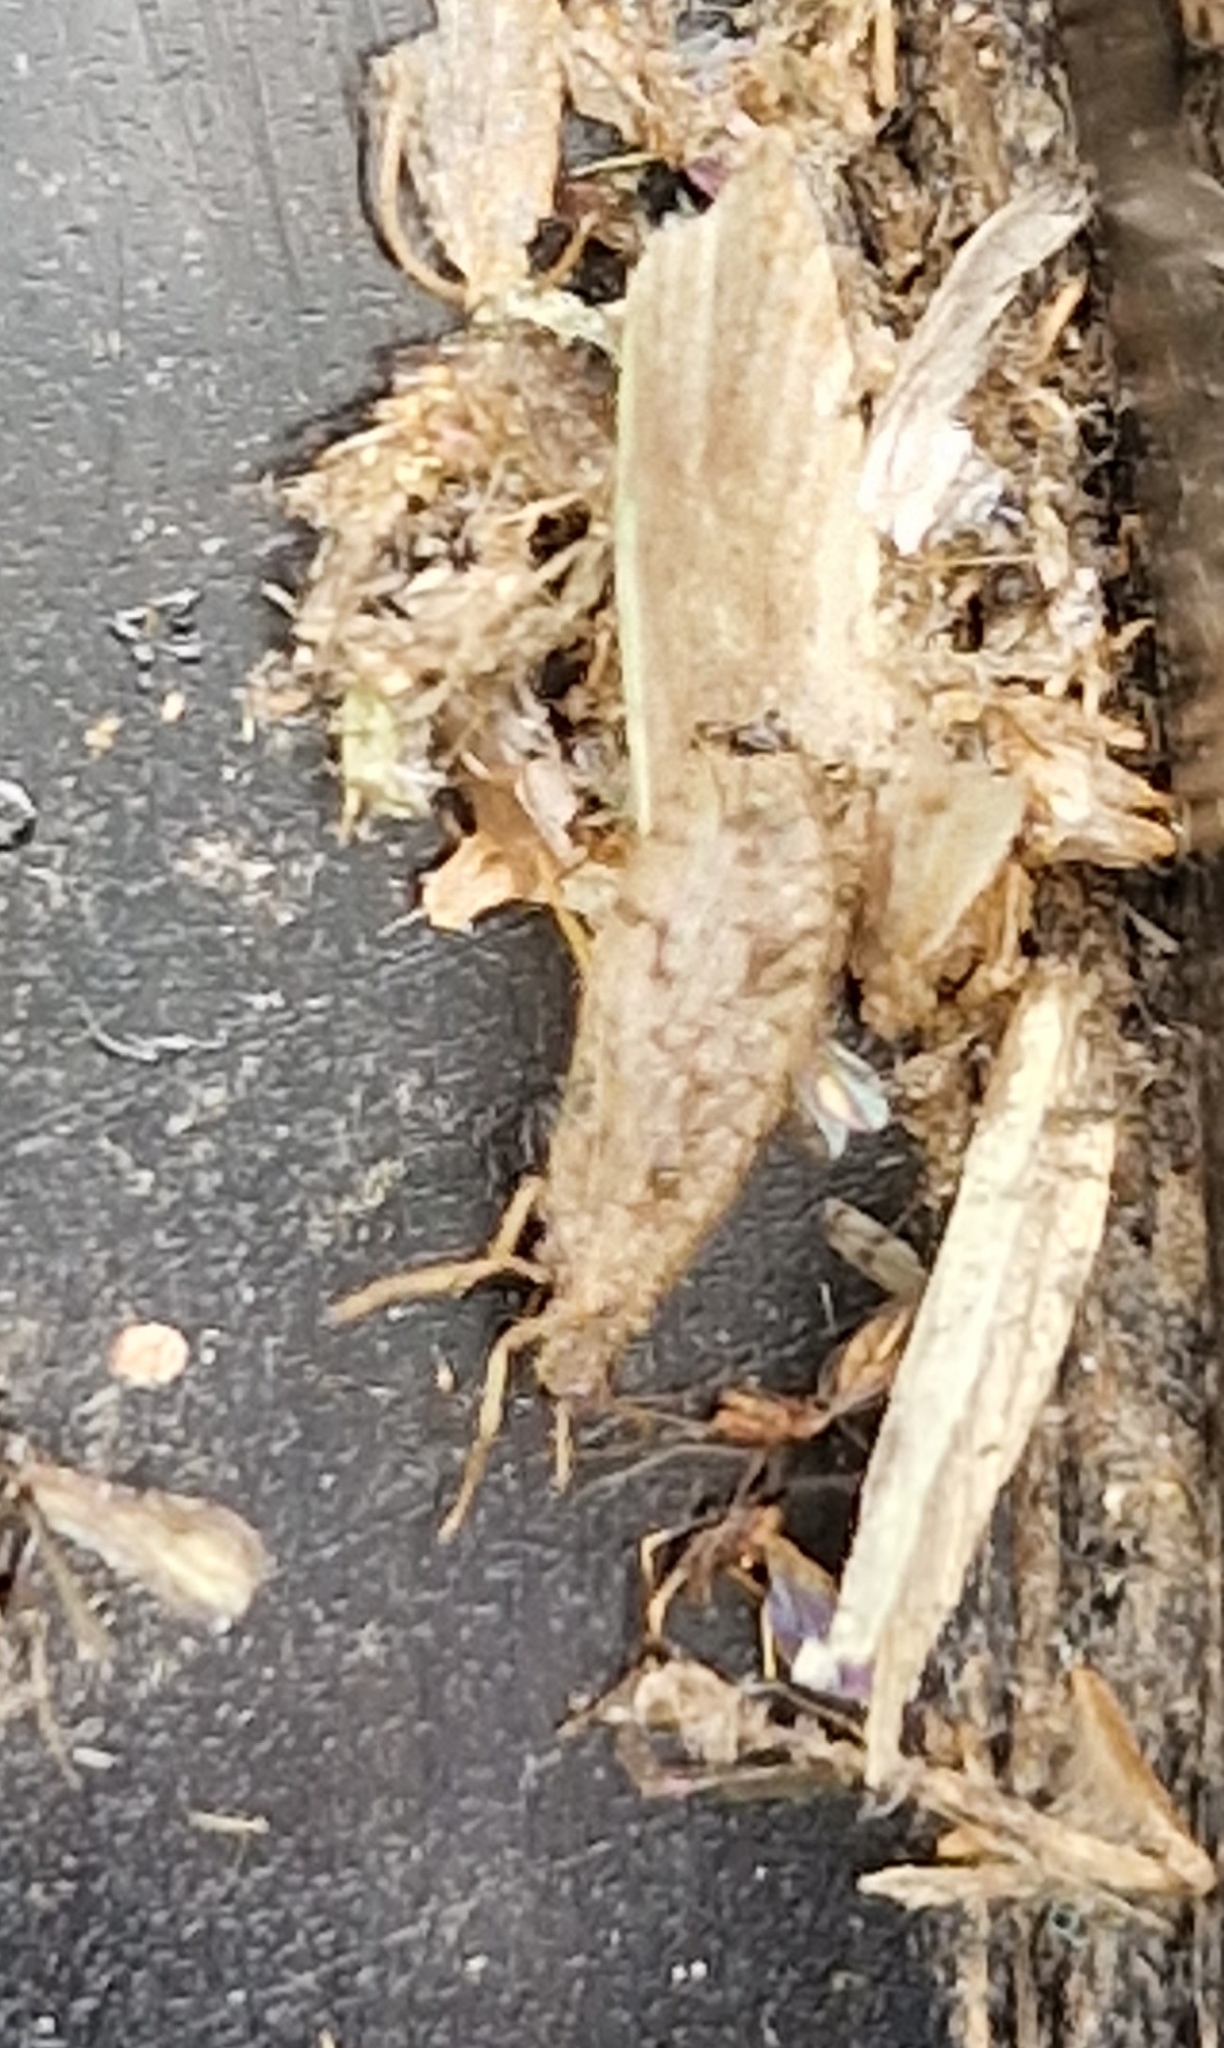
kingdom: Animalia
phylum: Arthropoda
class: Insecta
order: Neuroptera
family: Hemerobiidae
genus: Micromus
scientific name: Micromus variegatus
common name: Brown lacewing
